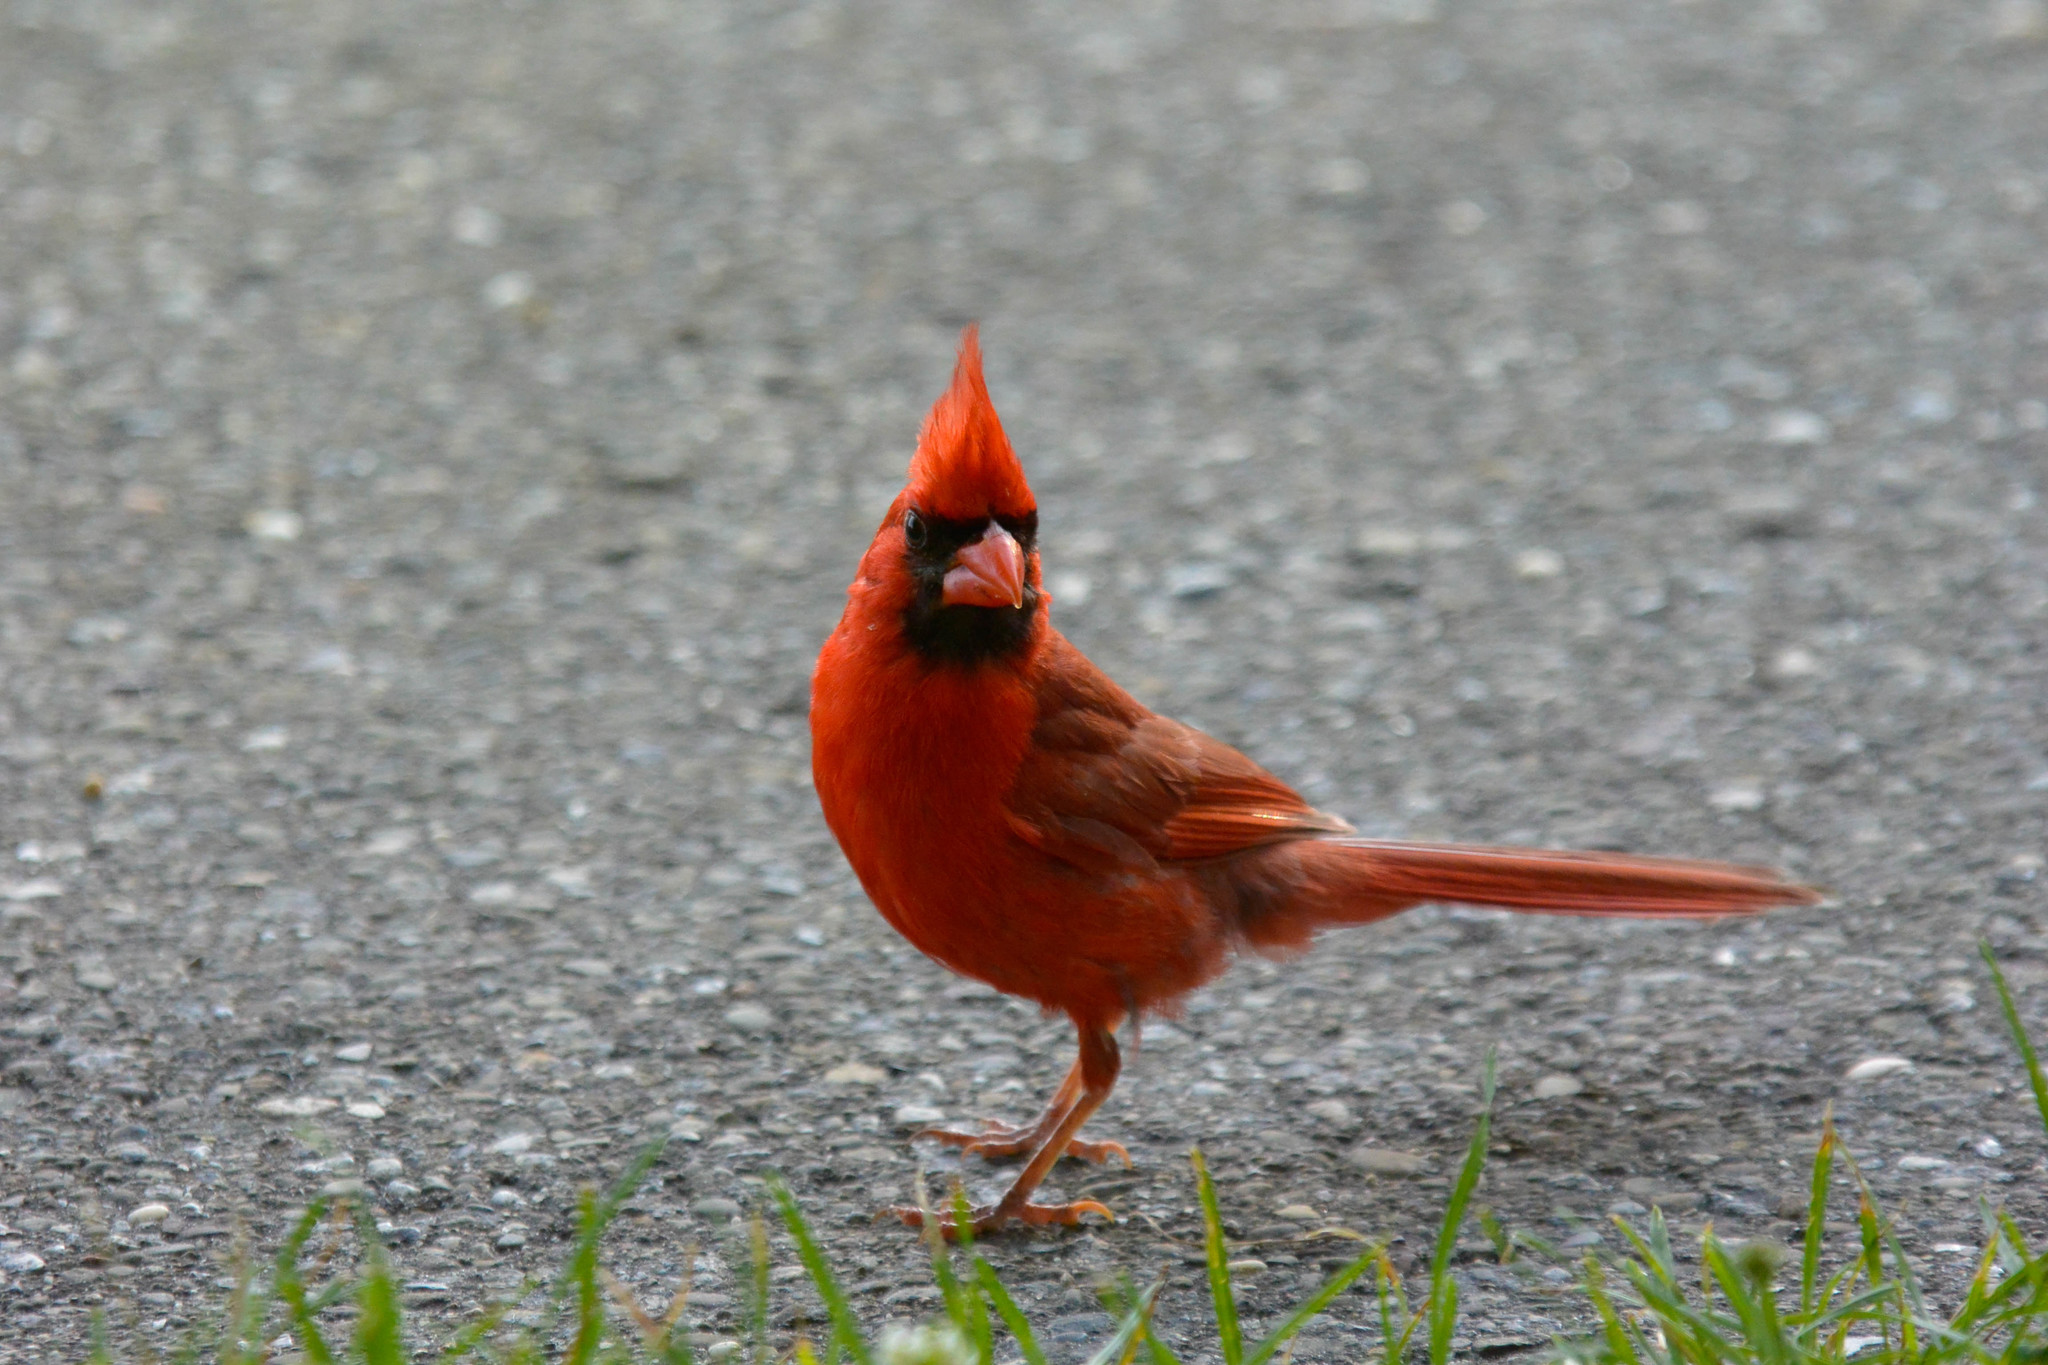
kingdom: Animalia
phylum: Chordata
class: Aves
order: Passeriformes
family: Cardinalidae
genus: Cardinalis
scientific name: Cardinalis cardinalis
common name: Northern cardinal
